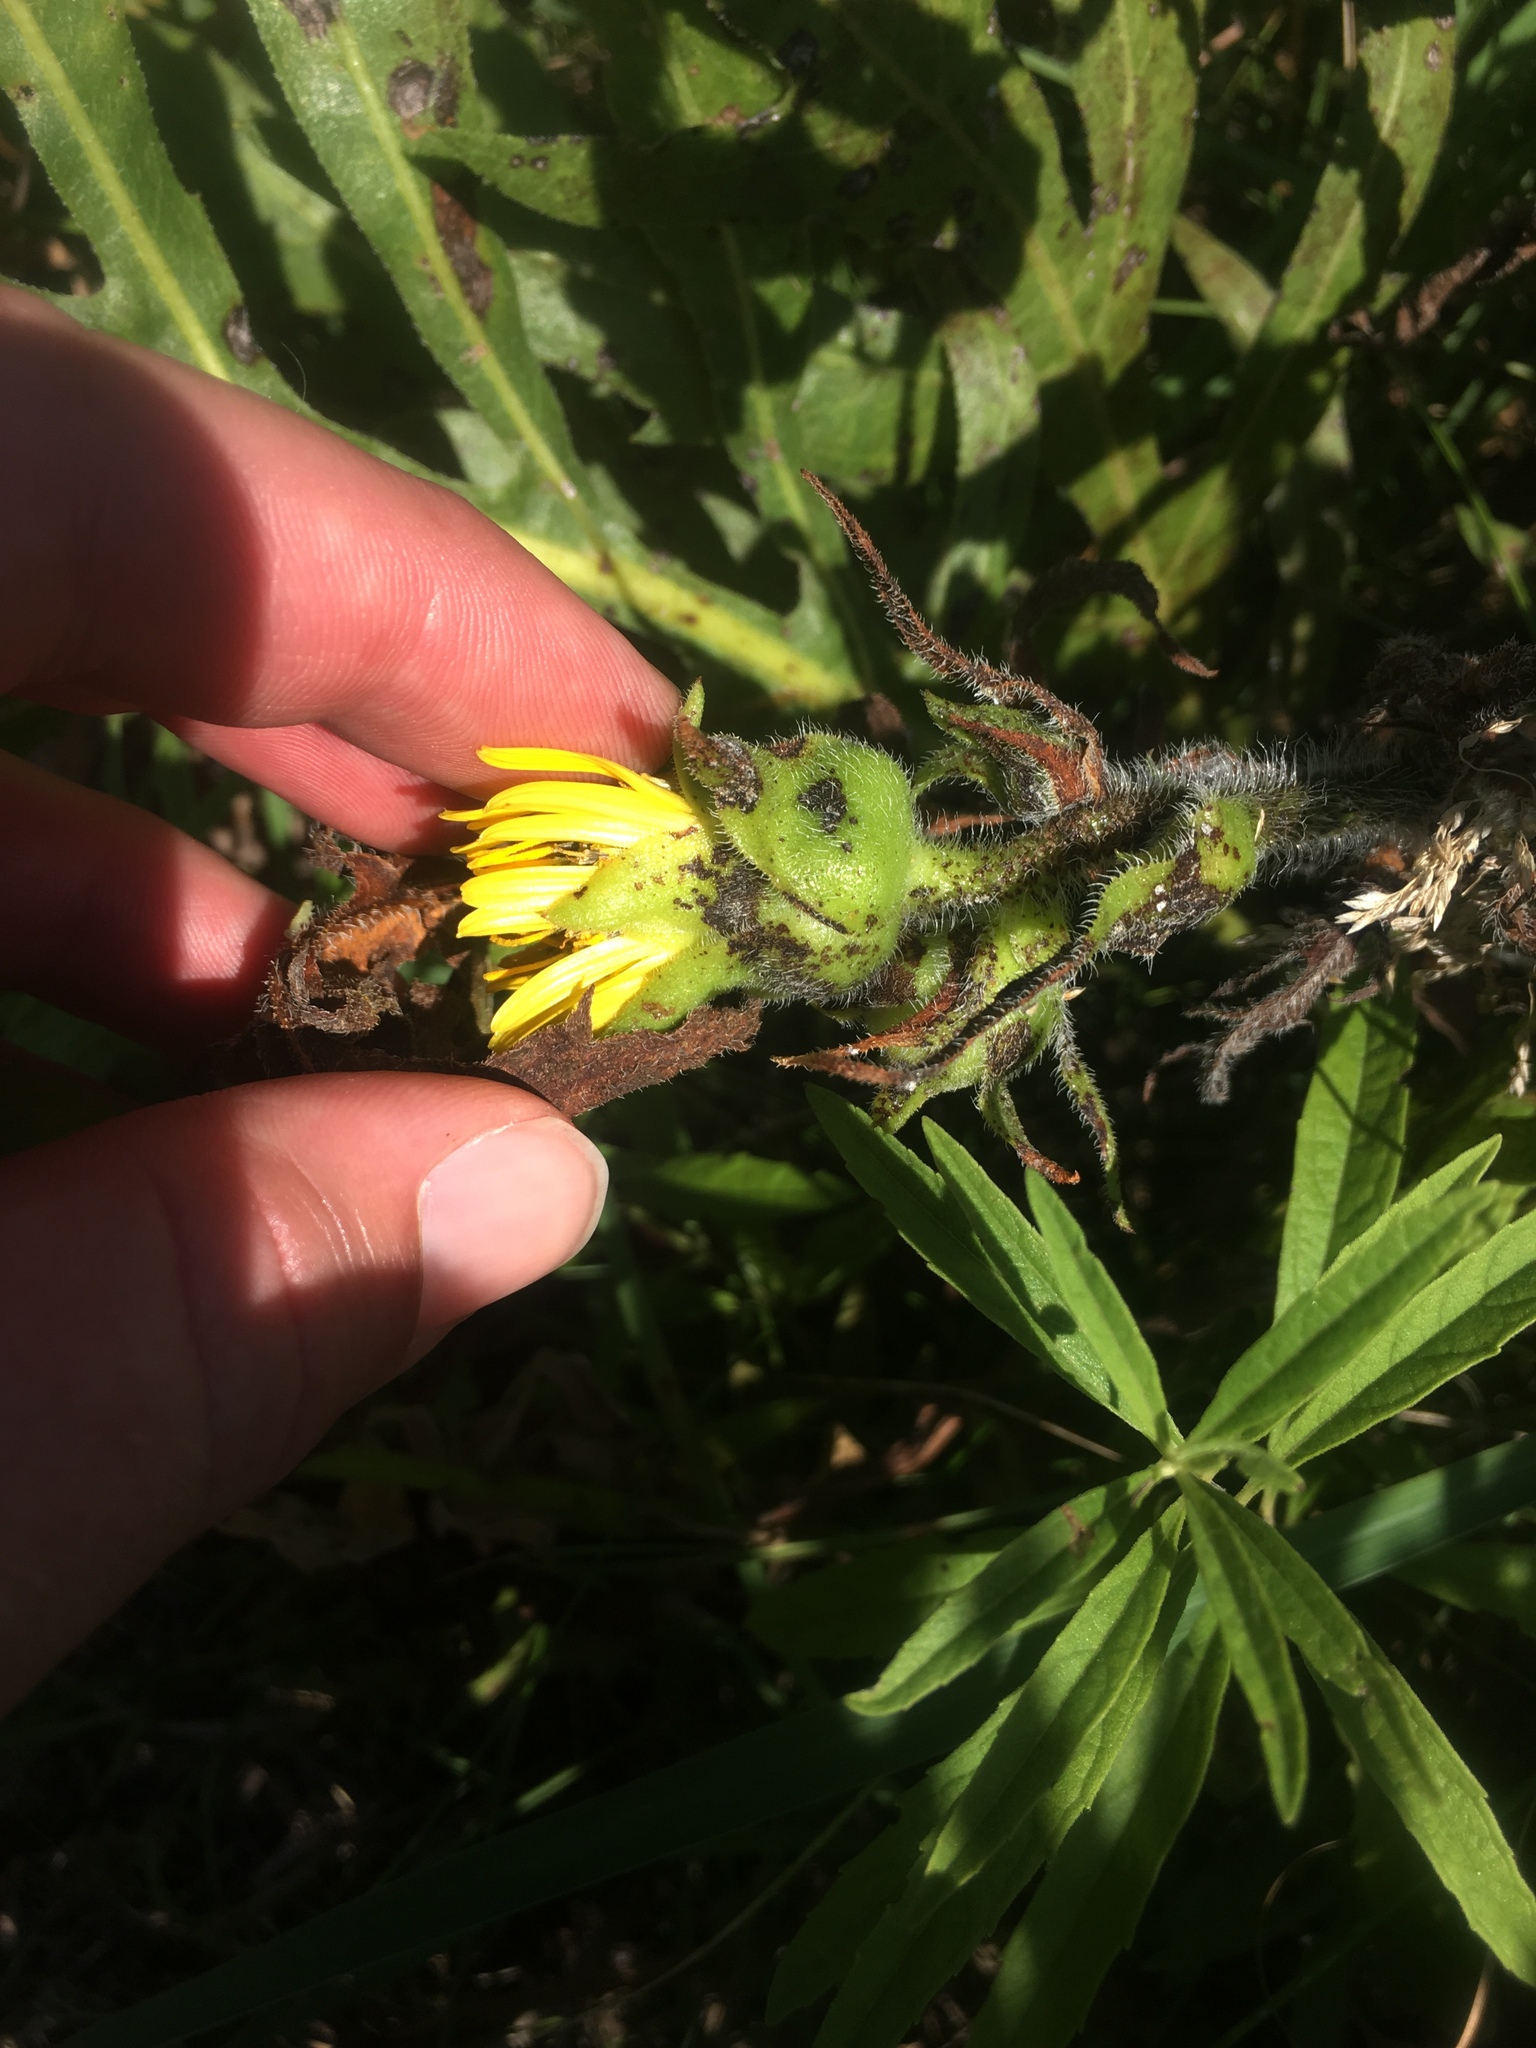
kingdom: Plantae
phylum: Tracheophyta
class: Magnoliopsida
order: Asterales
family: Asteraceae
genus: Silphium
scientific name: Silphium laciniatum
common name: Polarplant
